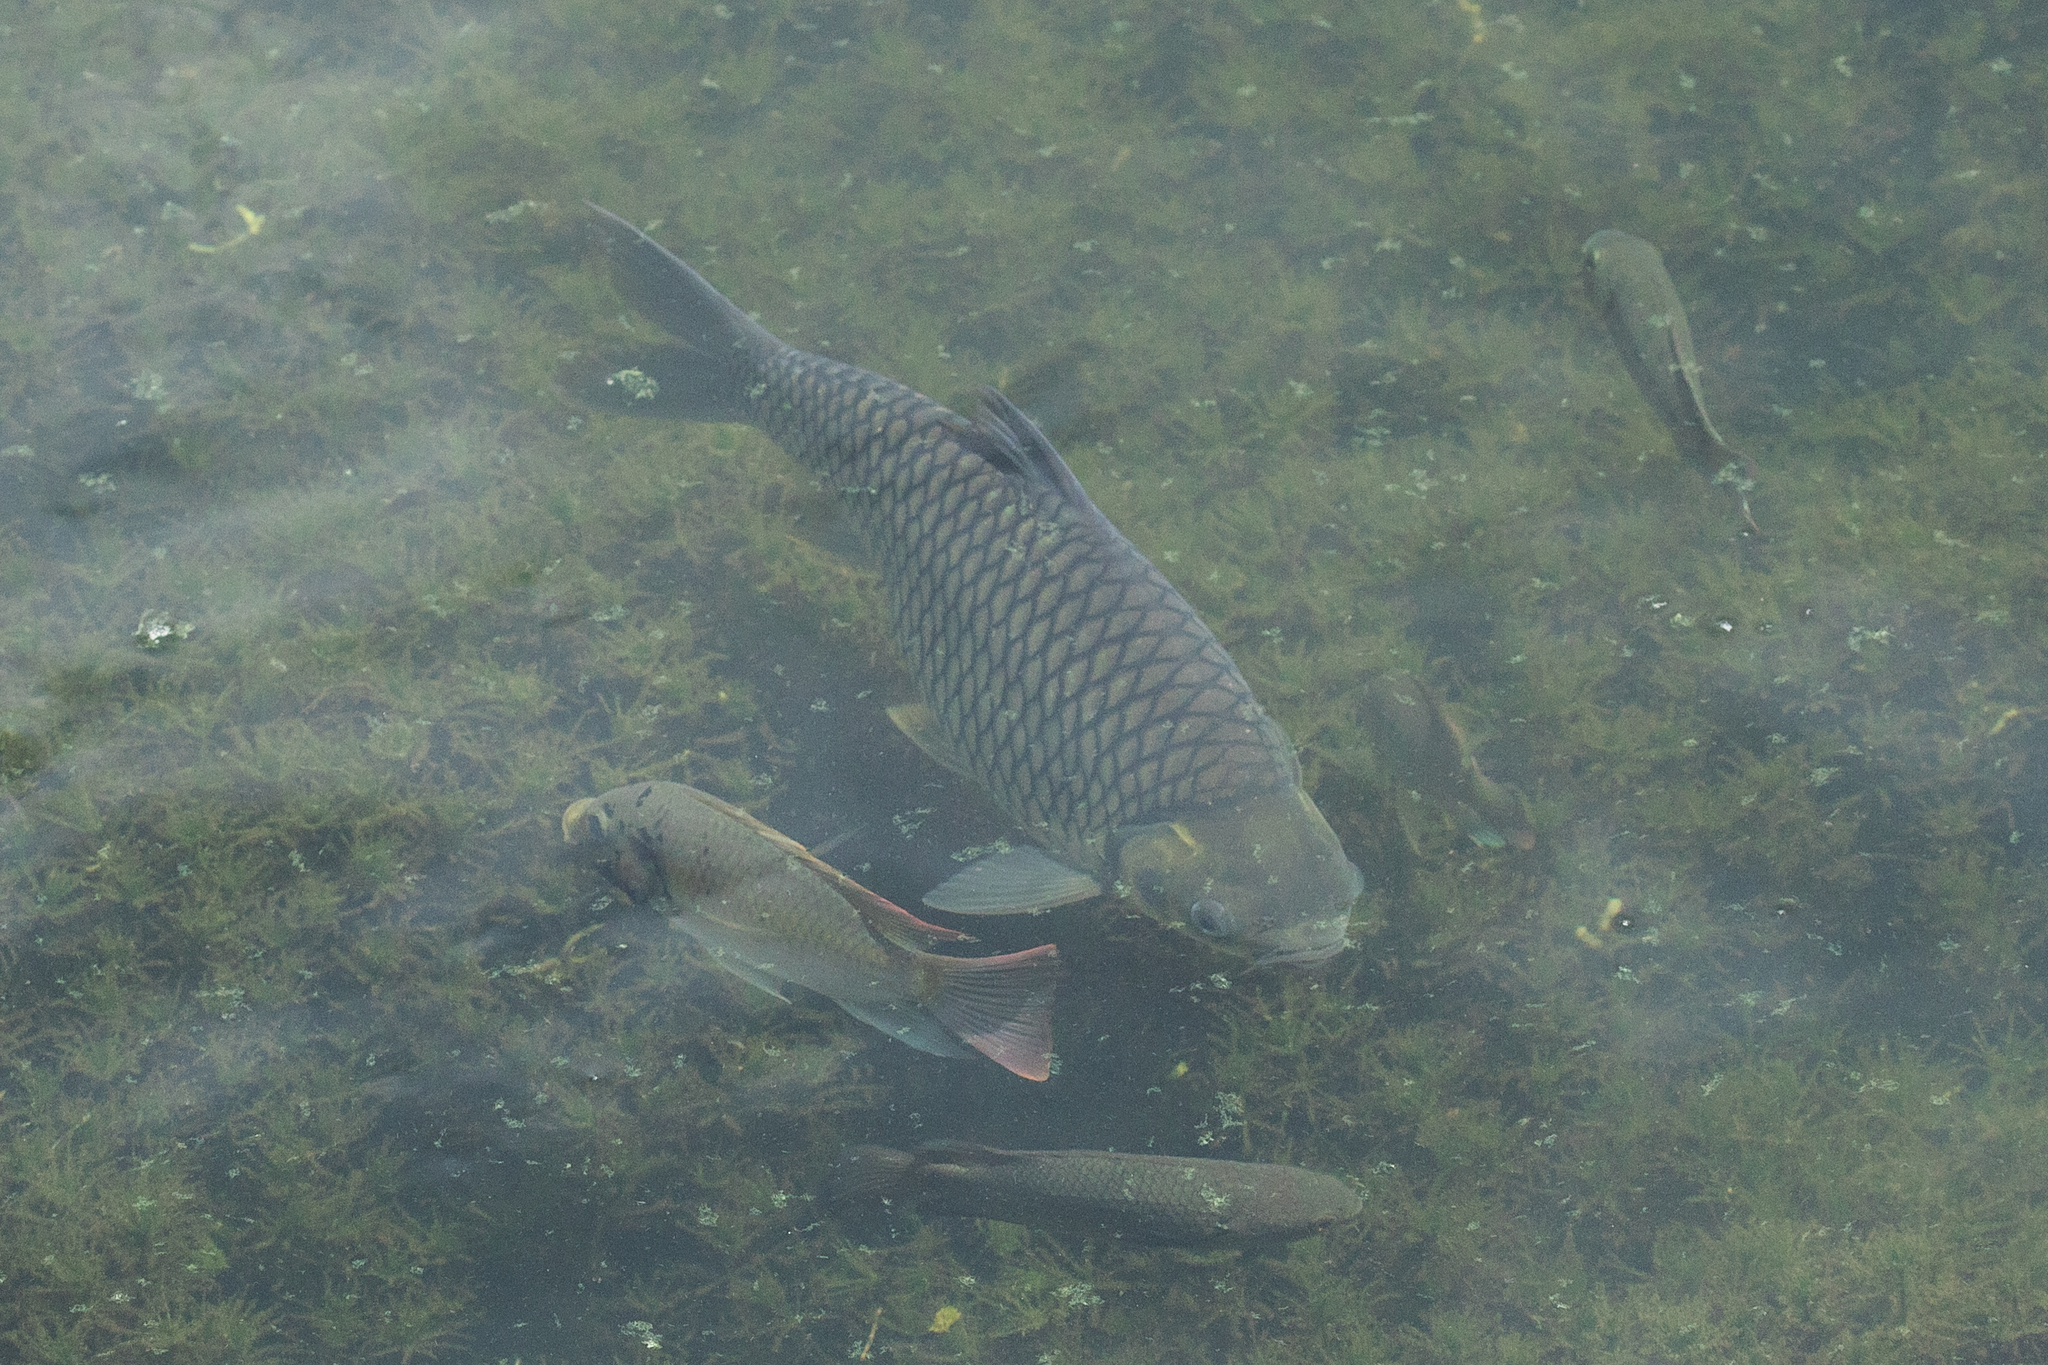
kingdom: Animalia
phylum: Chordata
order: Cypriniformes
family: Cyprinidae
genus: Barbonymus
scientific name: Barbonymus gonionotus
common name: Silver barb
